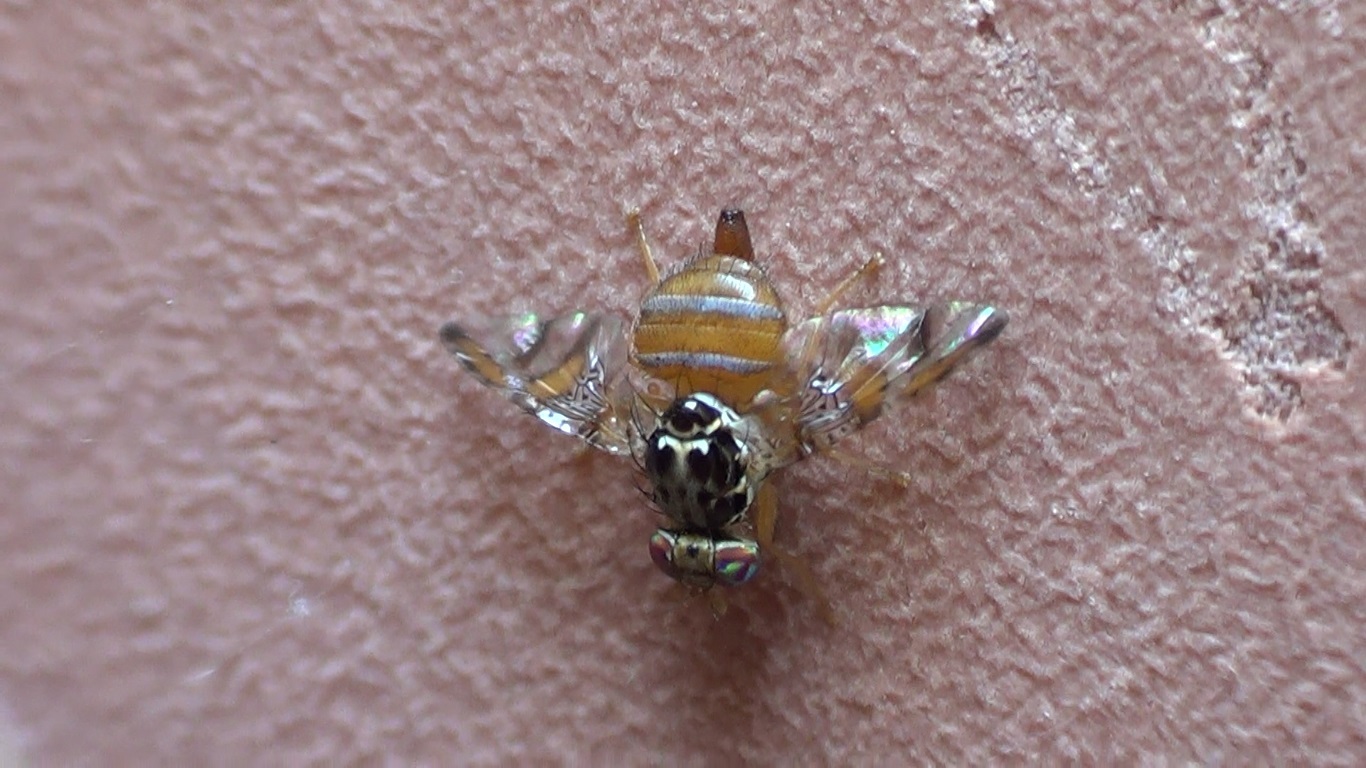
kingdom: Animalia
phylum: Arthropoda
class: Insecta
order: Diptera
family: Tephritidae
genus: Ceratitis
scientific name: Ceratitis capitata
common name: Mediterranean fruit fly
